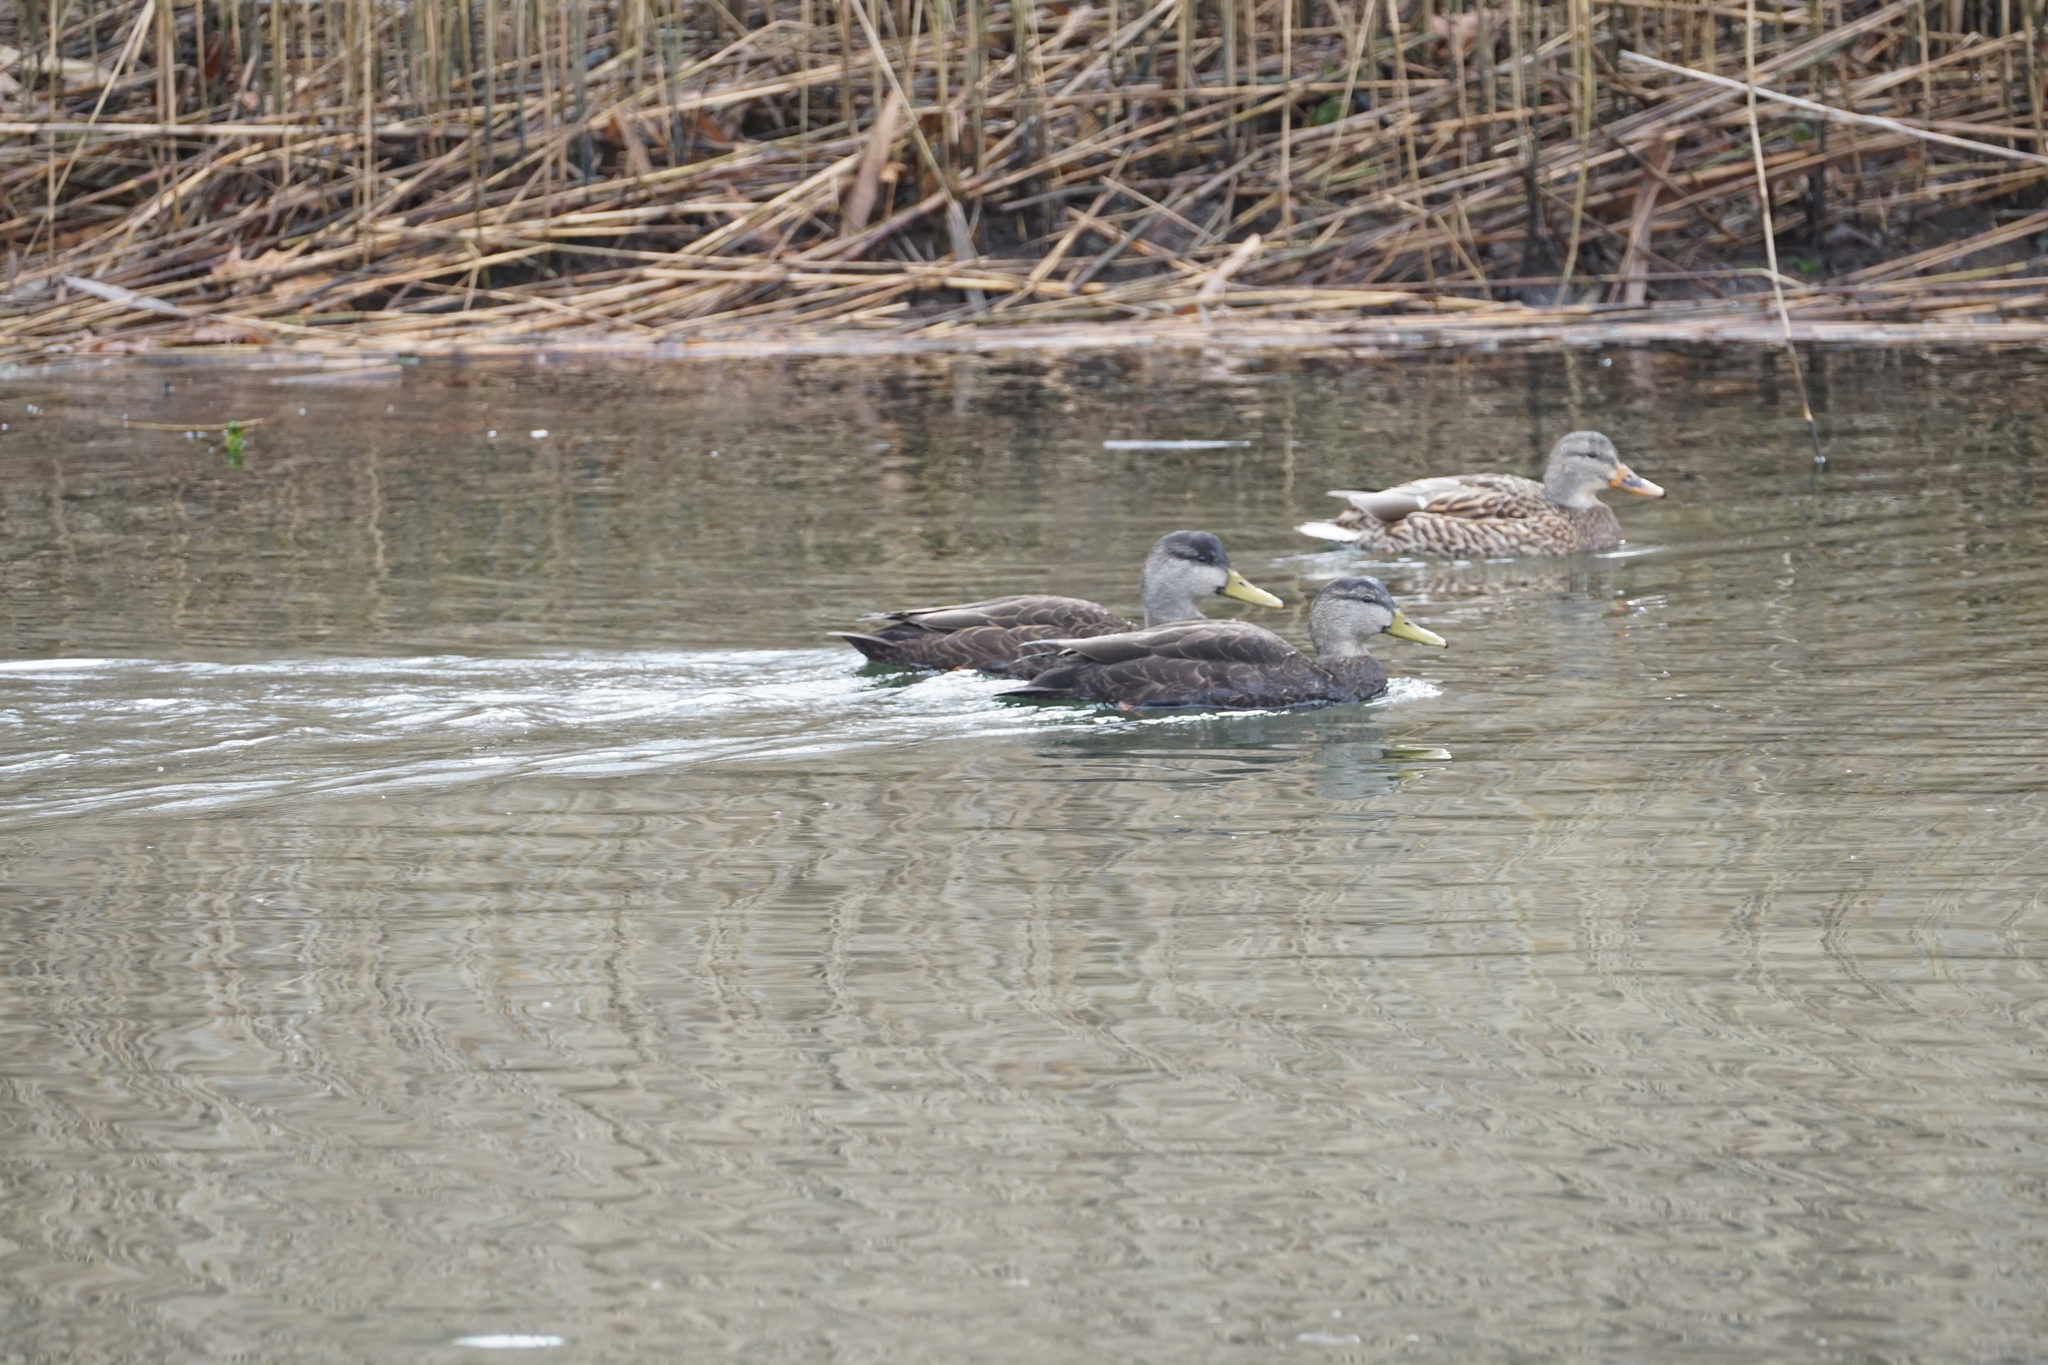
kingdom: Animalia
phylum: Chordata
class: Aves
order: Anseriformes
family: Anatidae
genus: Anas
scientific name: Anas rubripes
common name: American black duck
